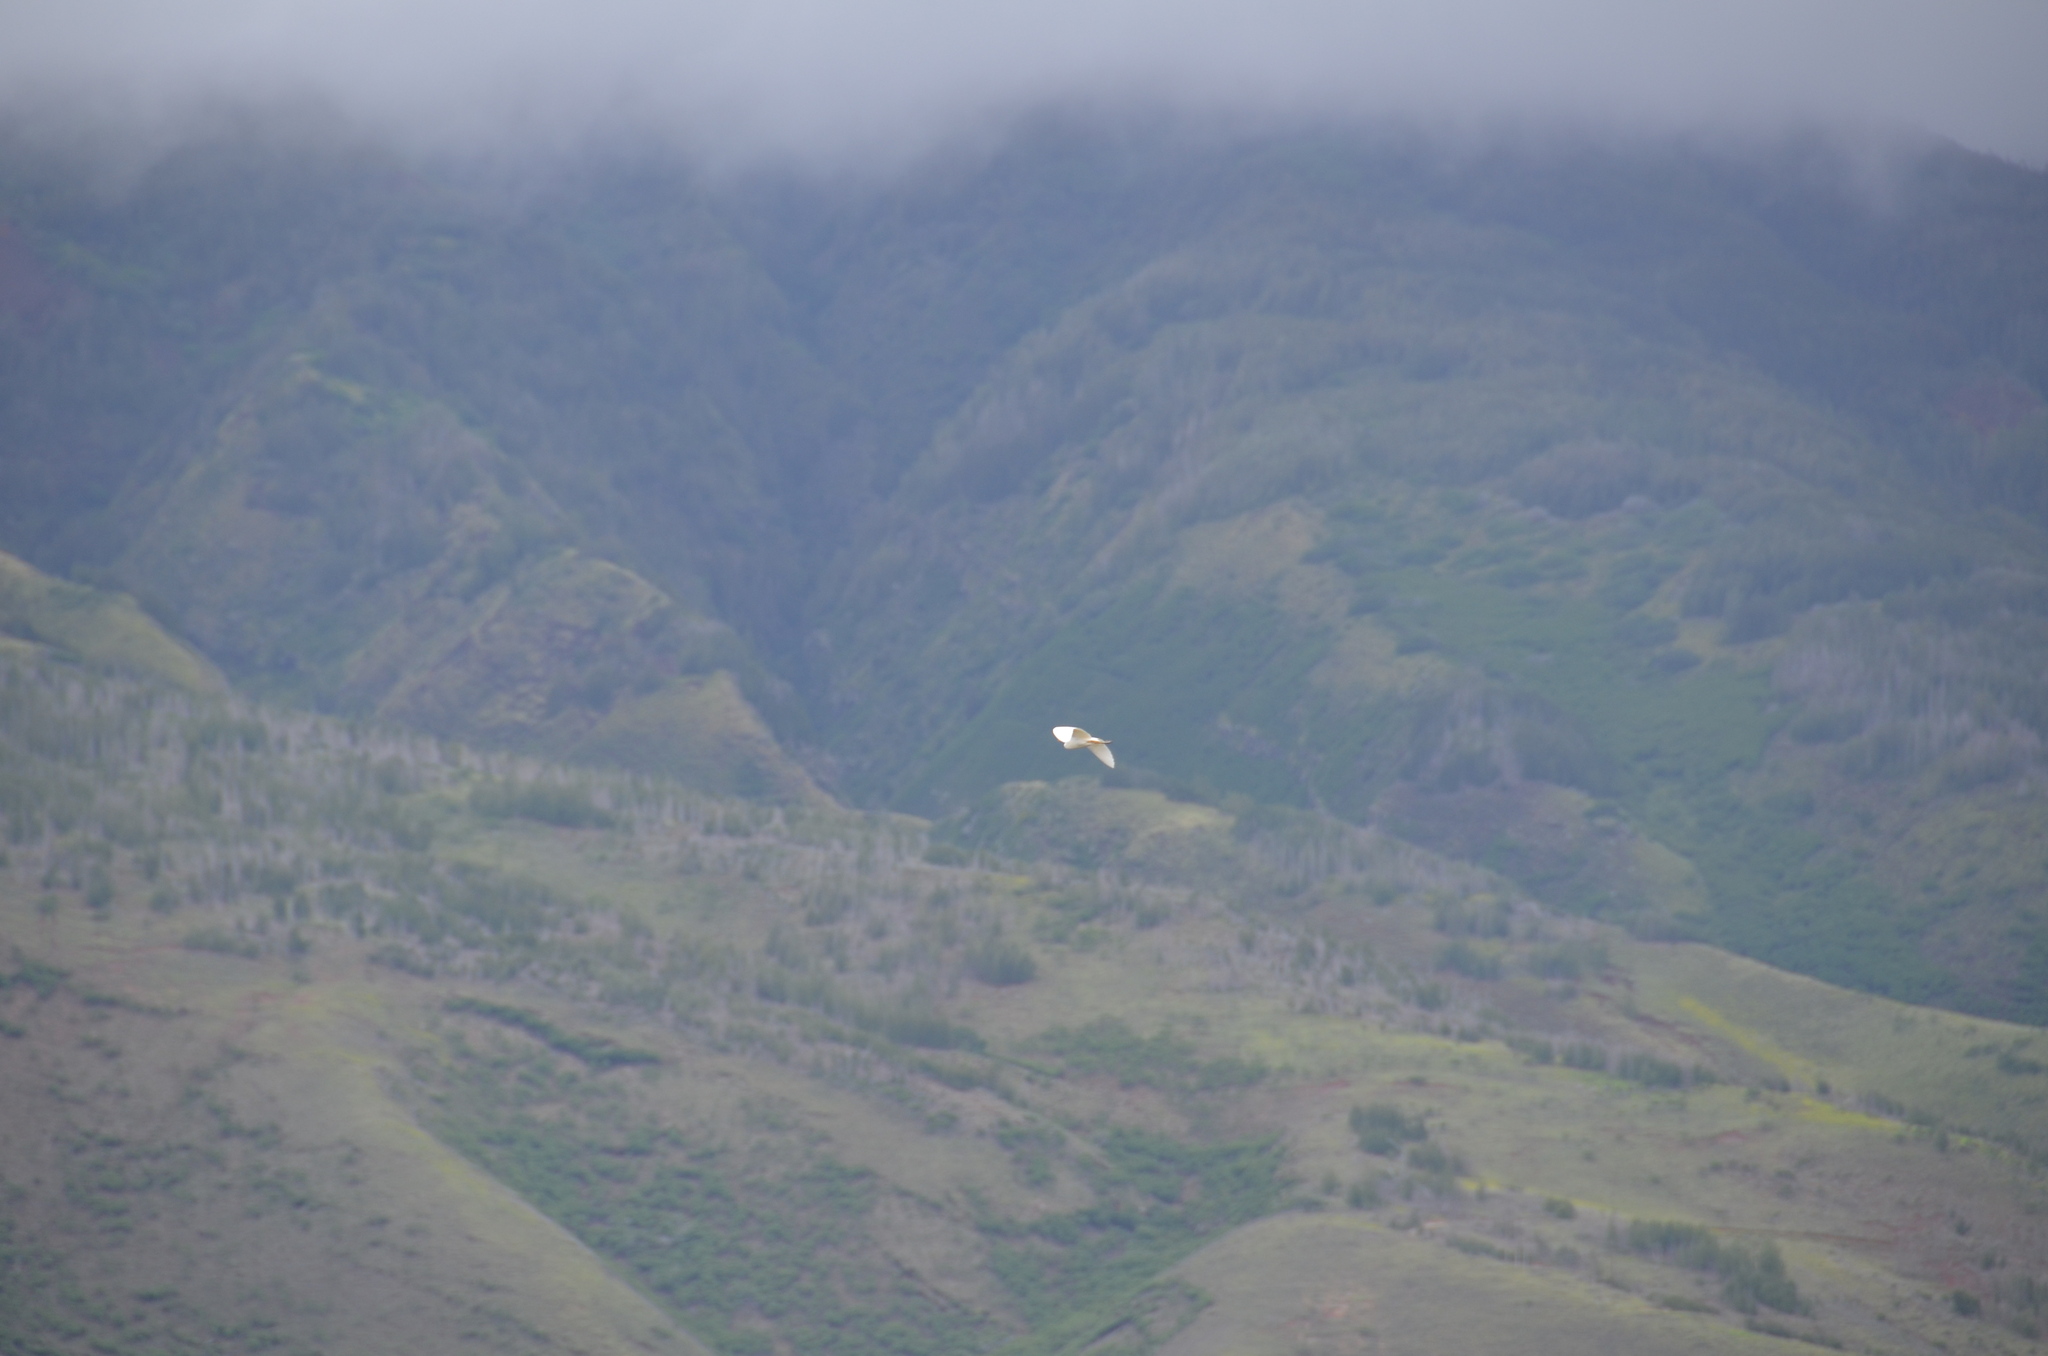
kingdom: Animalia
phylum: Chordata
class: Aves
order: Pelecaniformes
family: Ardeidae
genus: Bubulcus
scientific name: Bubulcus ibis
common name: Cattle egret
